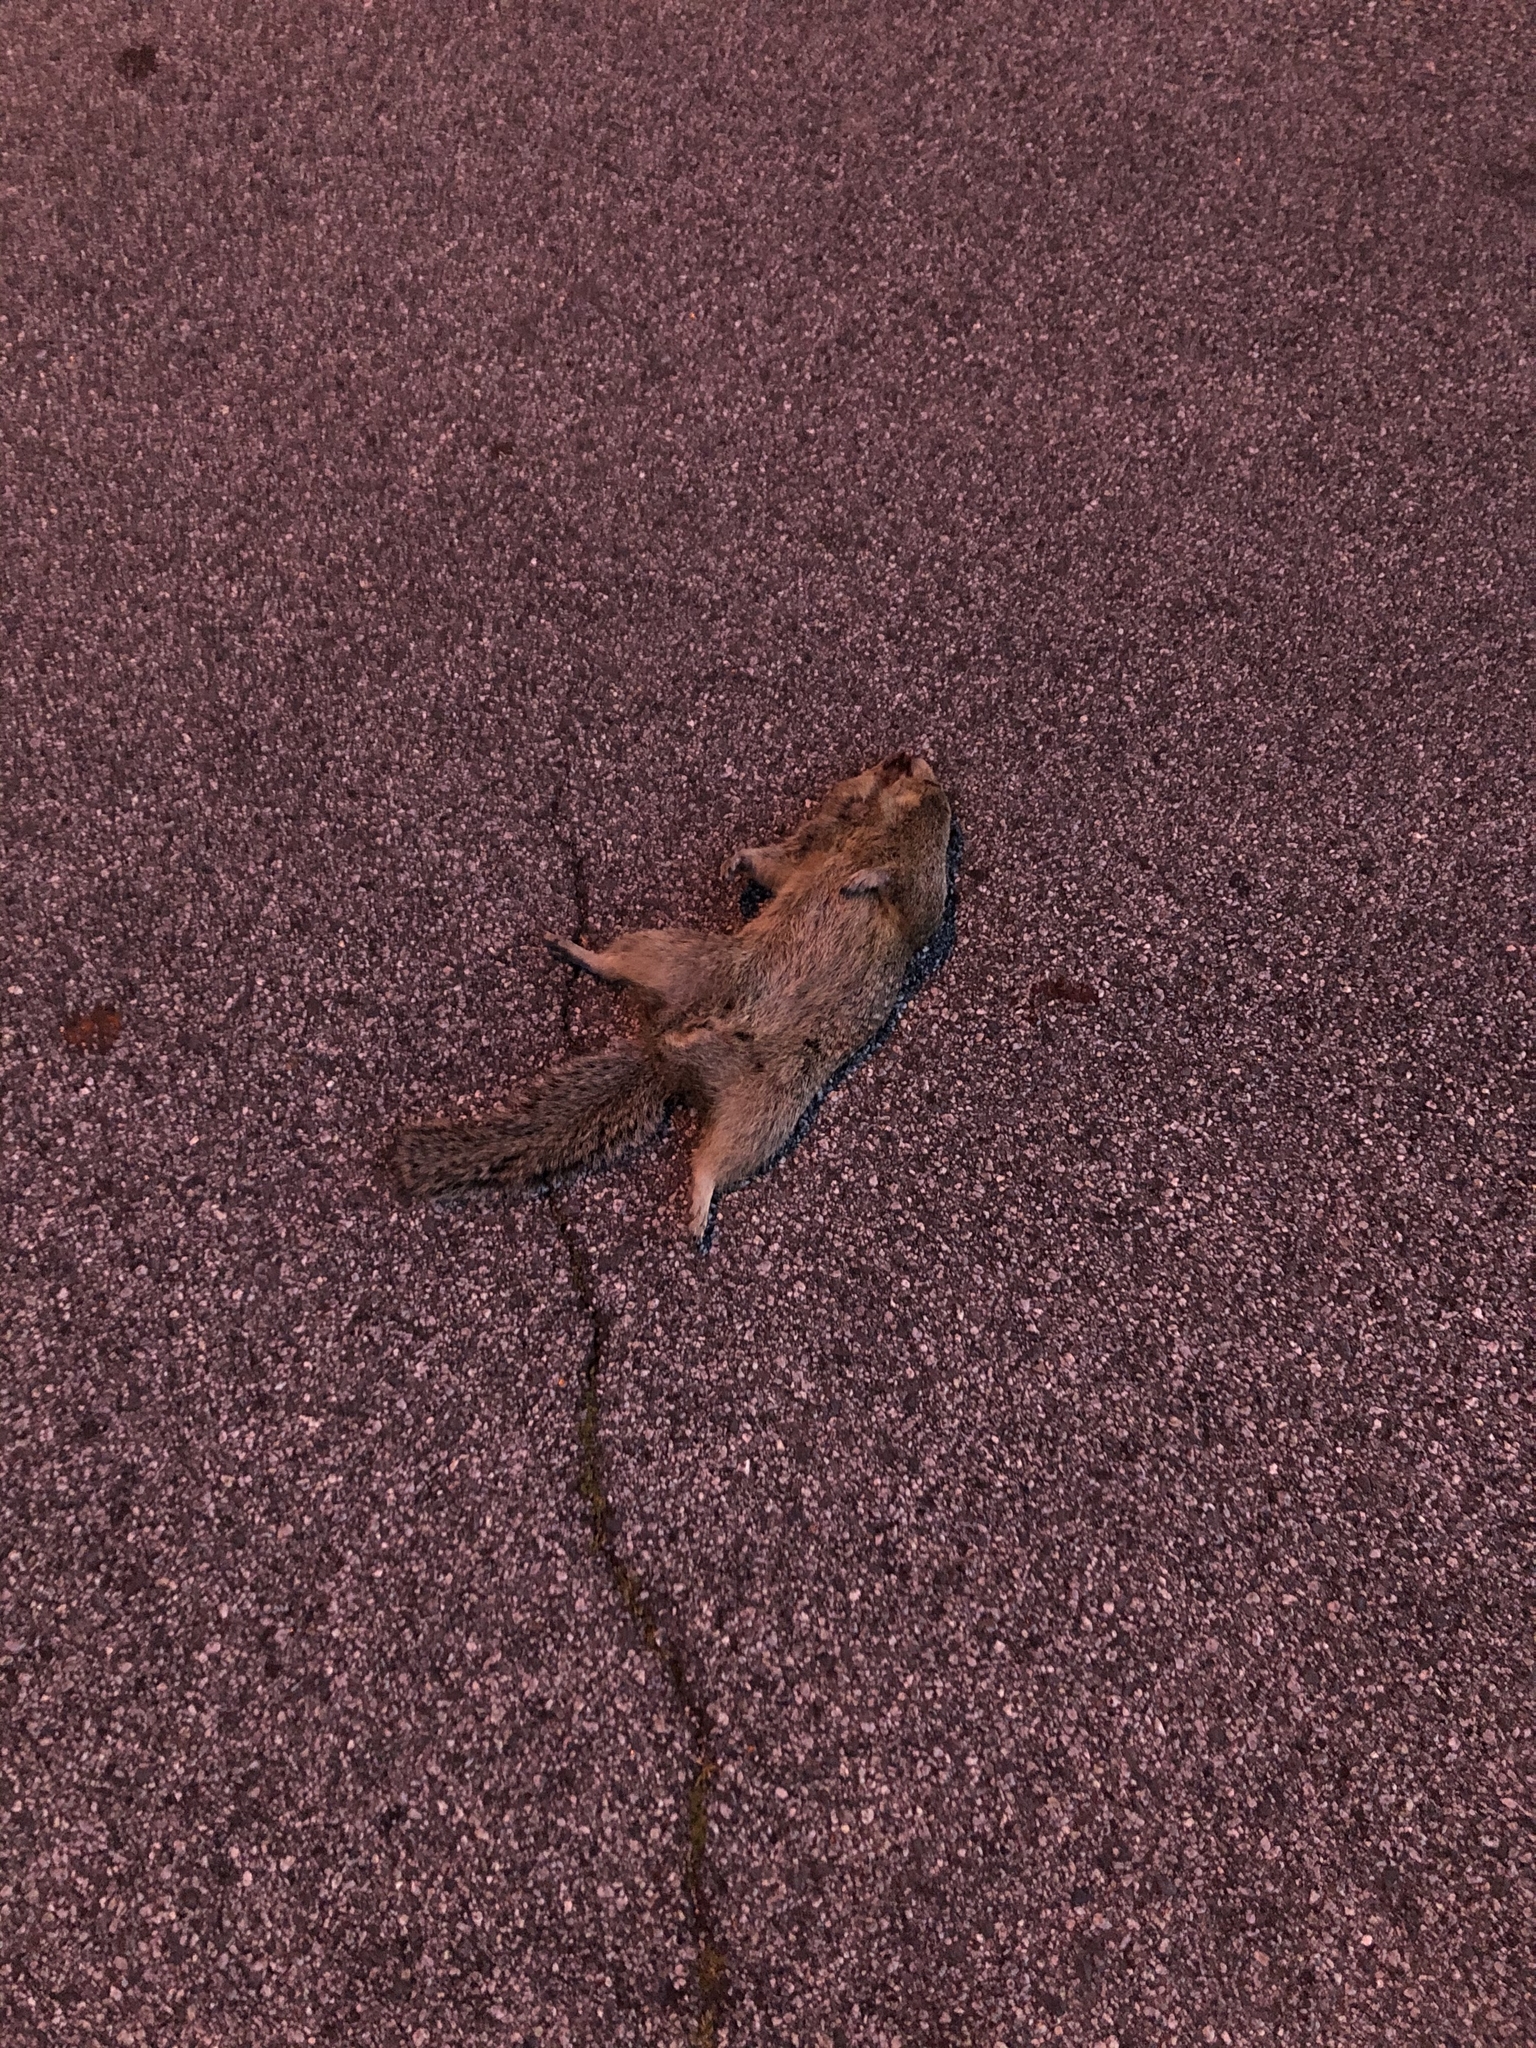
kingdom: Animalia
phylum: Chordata
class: Mammalia
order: Rodentia
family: Sciuridae
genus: Otospermophilus
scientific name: Otospermophilus beecheyi
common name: California ground squirrel
